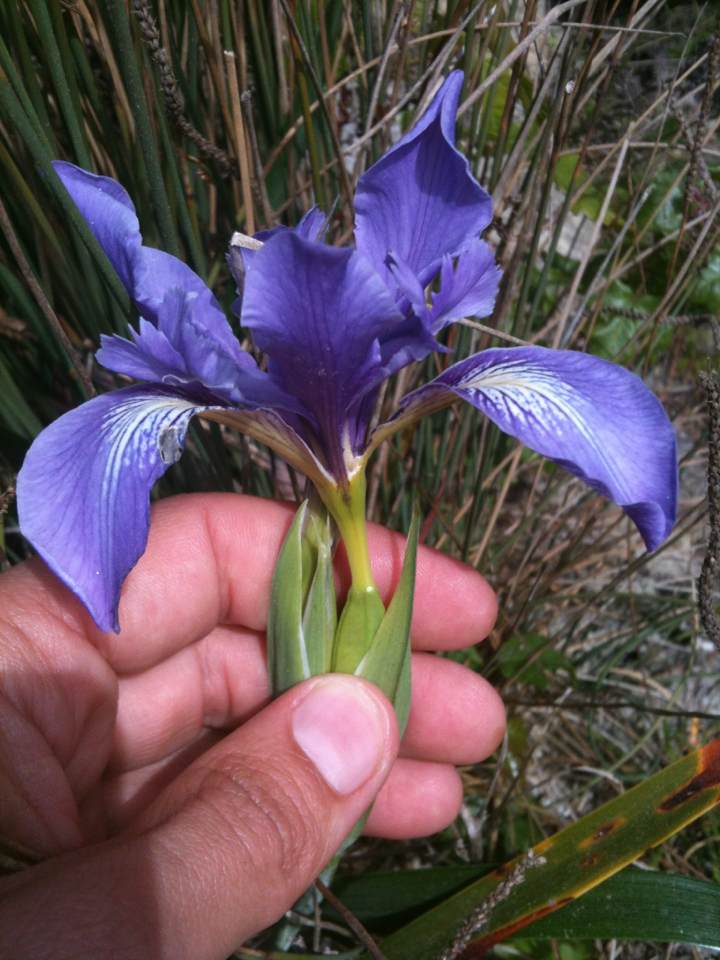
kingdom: Plantae
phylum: Tracheophyta
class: Liliopsida
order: Asparagales
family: Iridaceae
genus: Iris
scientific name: Iris douglasiana
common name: Marin iris
